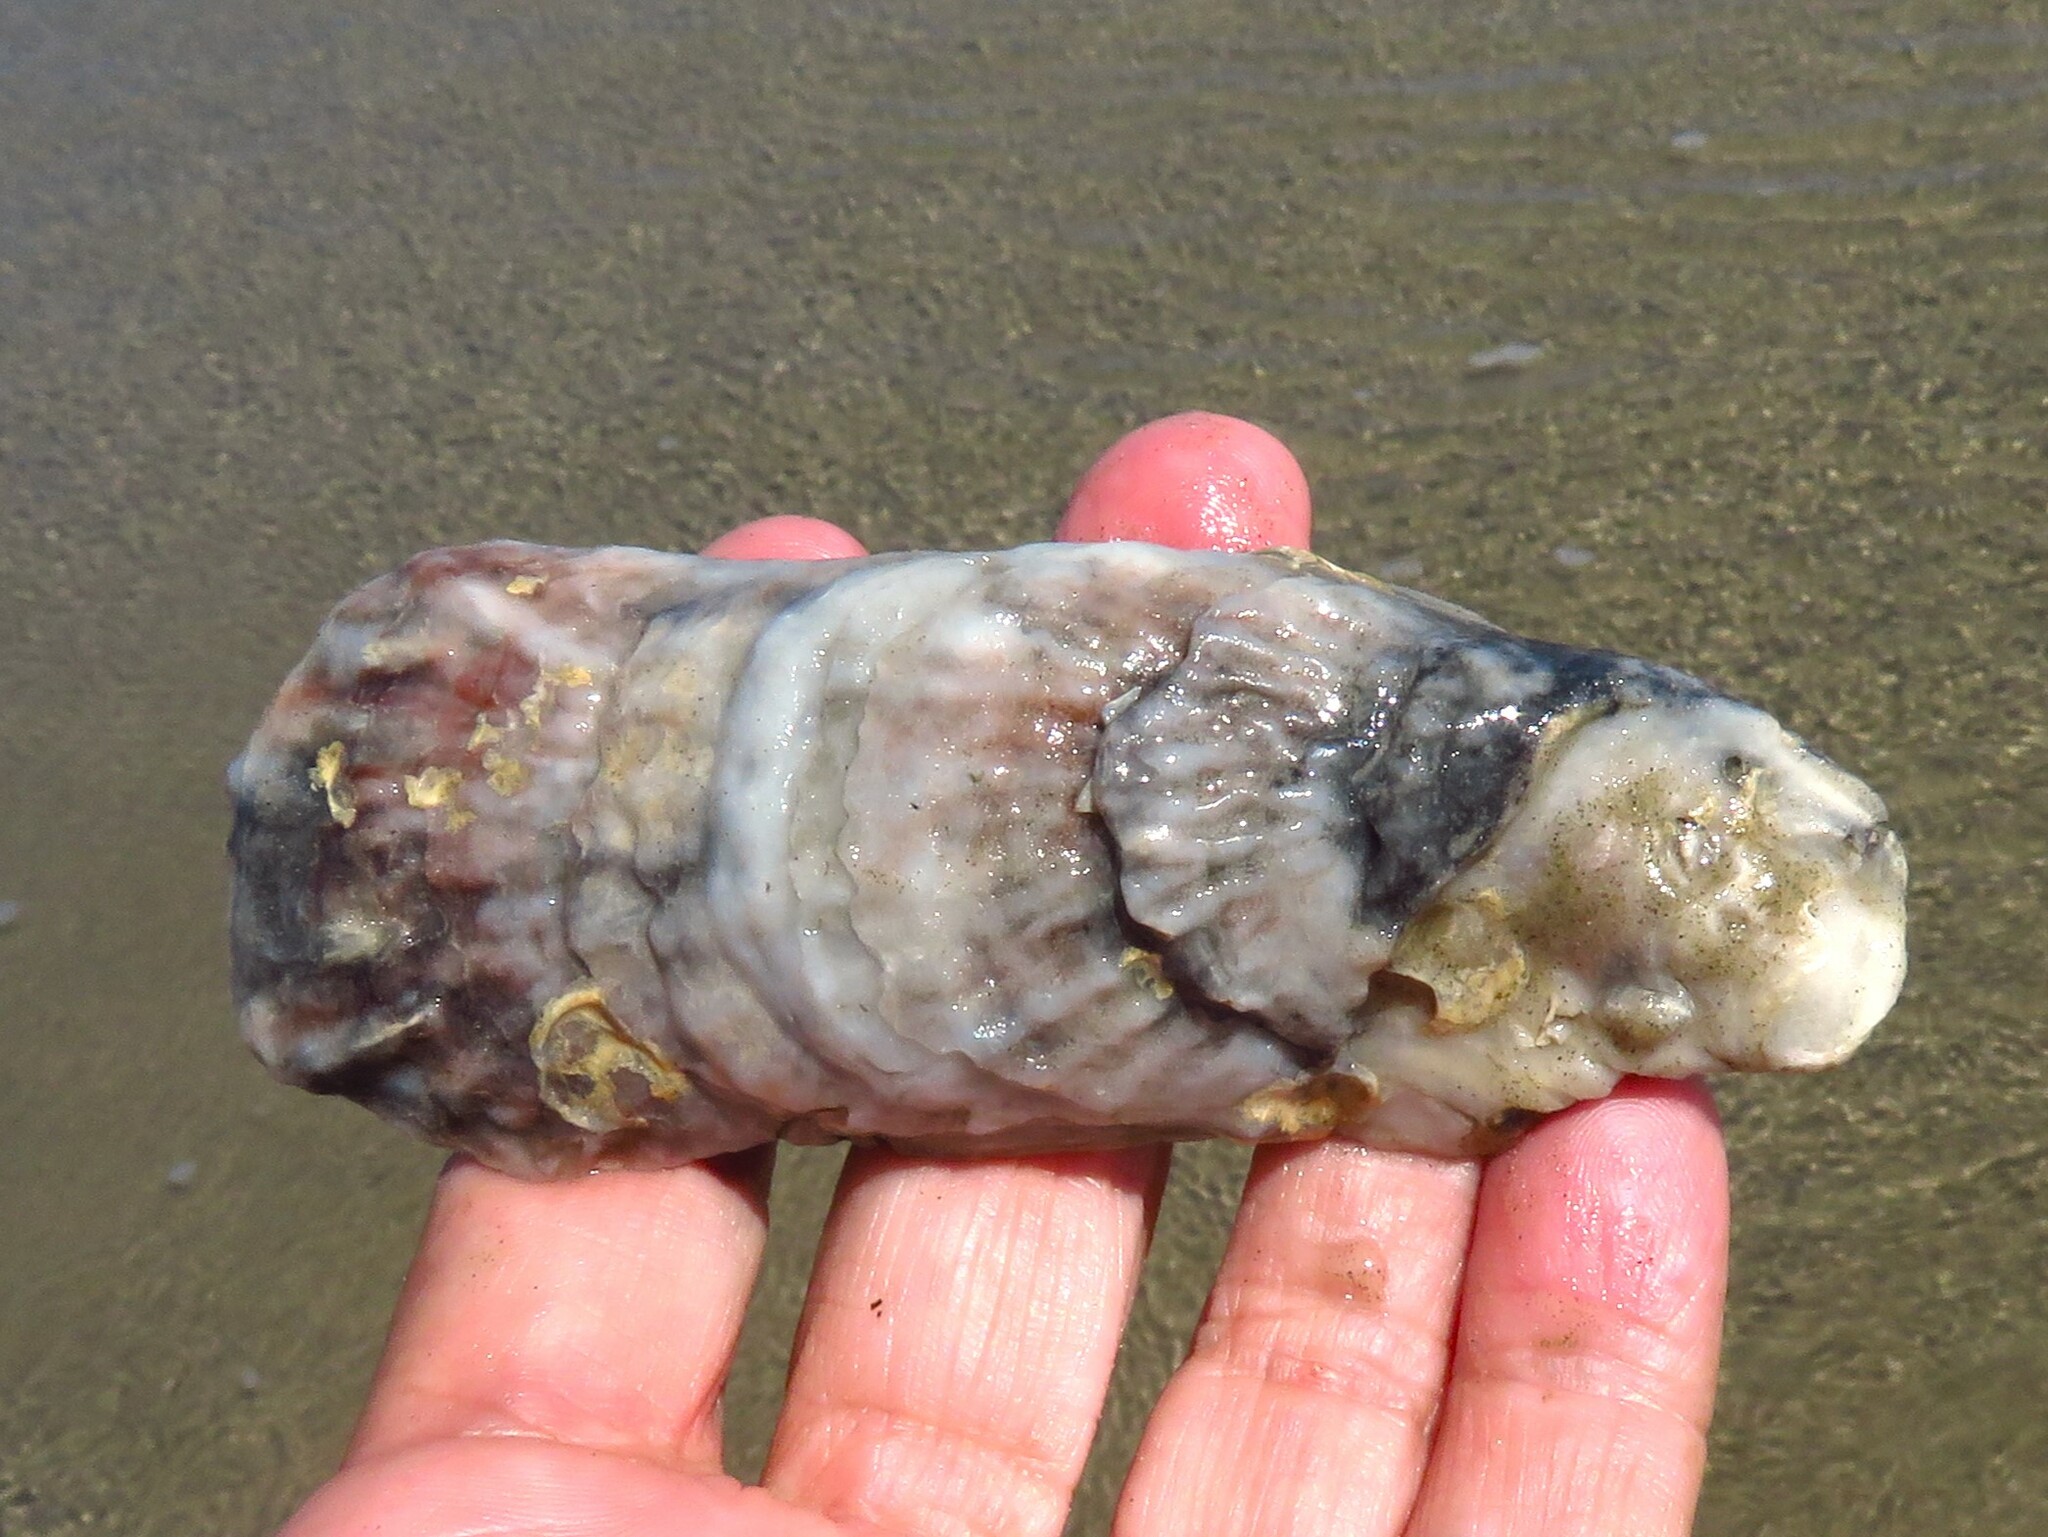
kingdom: Animalia
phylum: Mollusca
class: Bivalvia
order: Ostreida
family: Ostreidae
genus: Crassostrea
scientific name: Crassostrea virginica
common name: American oyster
